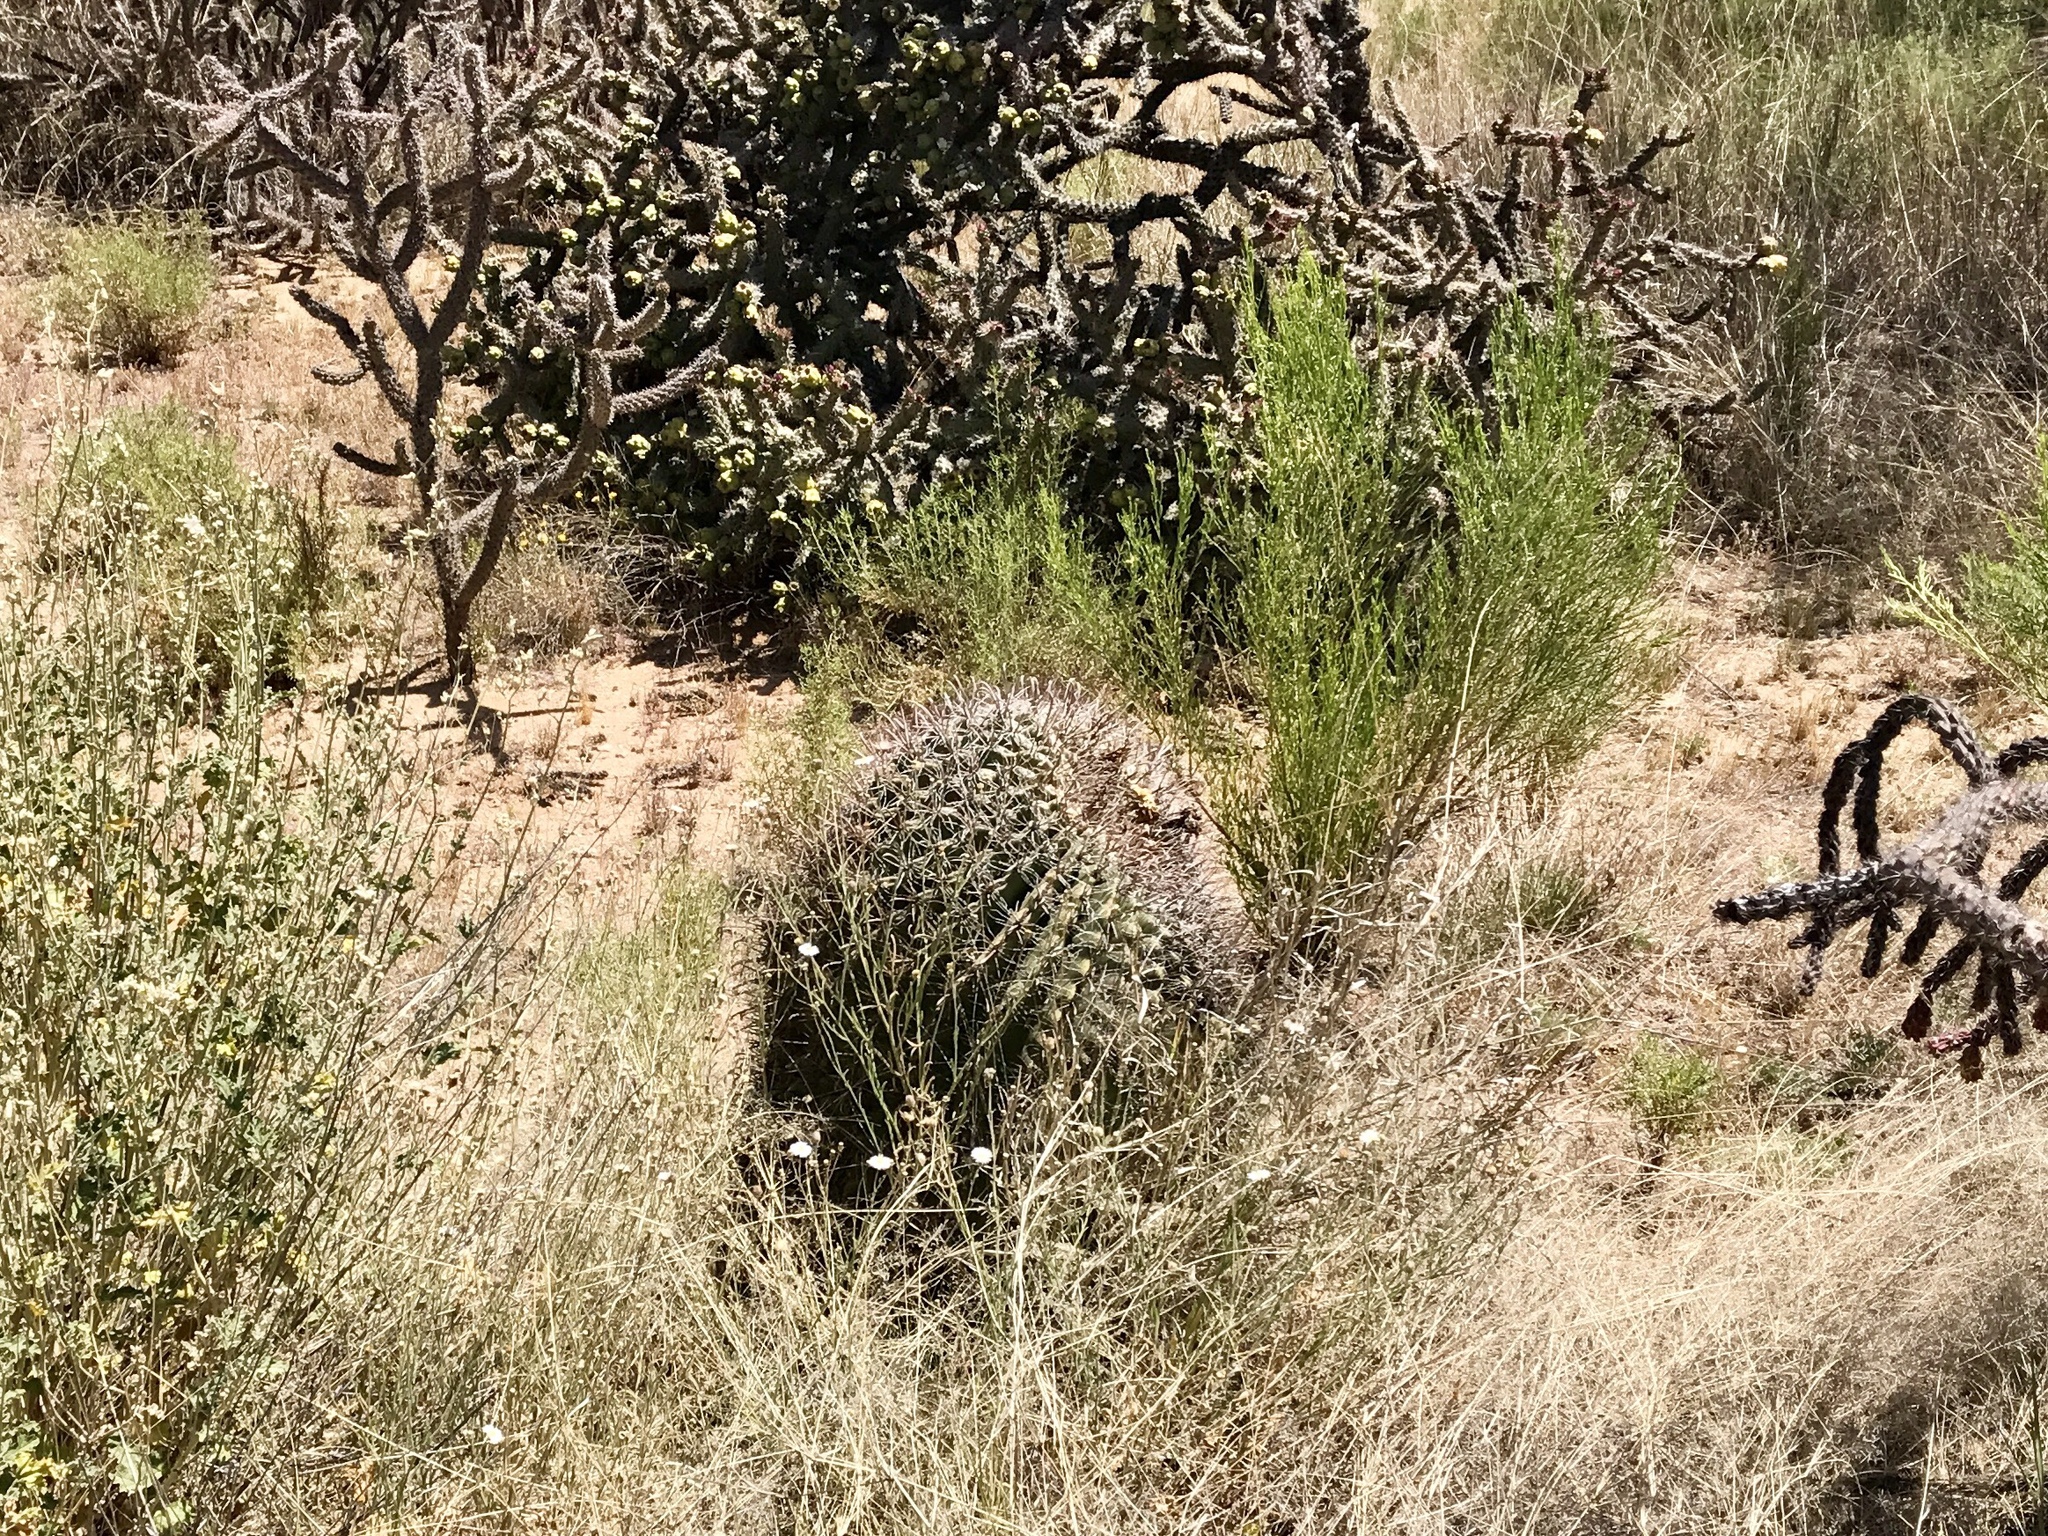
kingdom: Plantae
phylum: Tracheophyta
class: Magnoliopsida
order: Caryophyllales
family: Cactaceae
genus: Ferocactus
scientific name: Ferocactus wislizeni
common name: Candy barrel cactus
